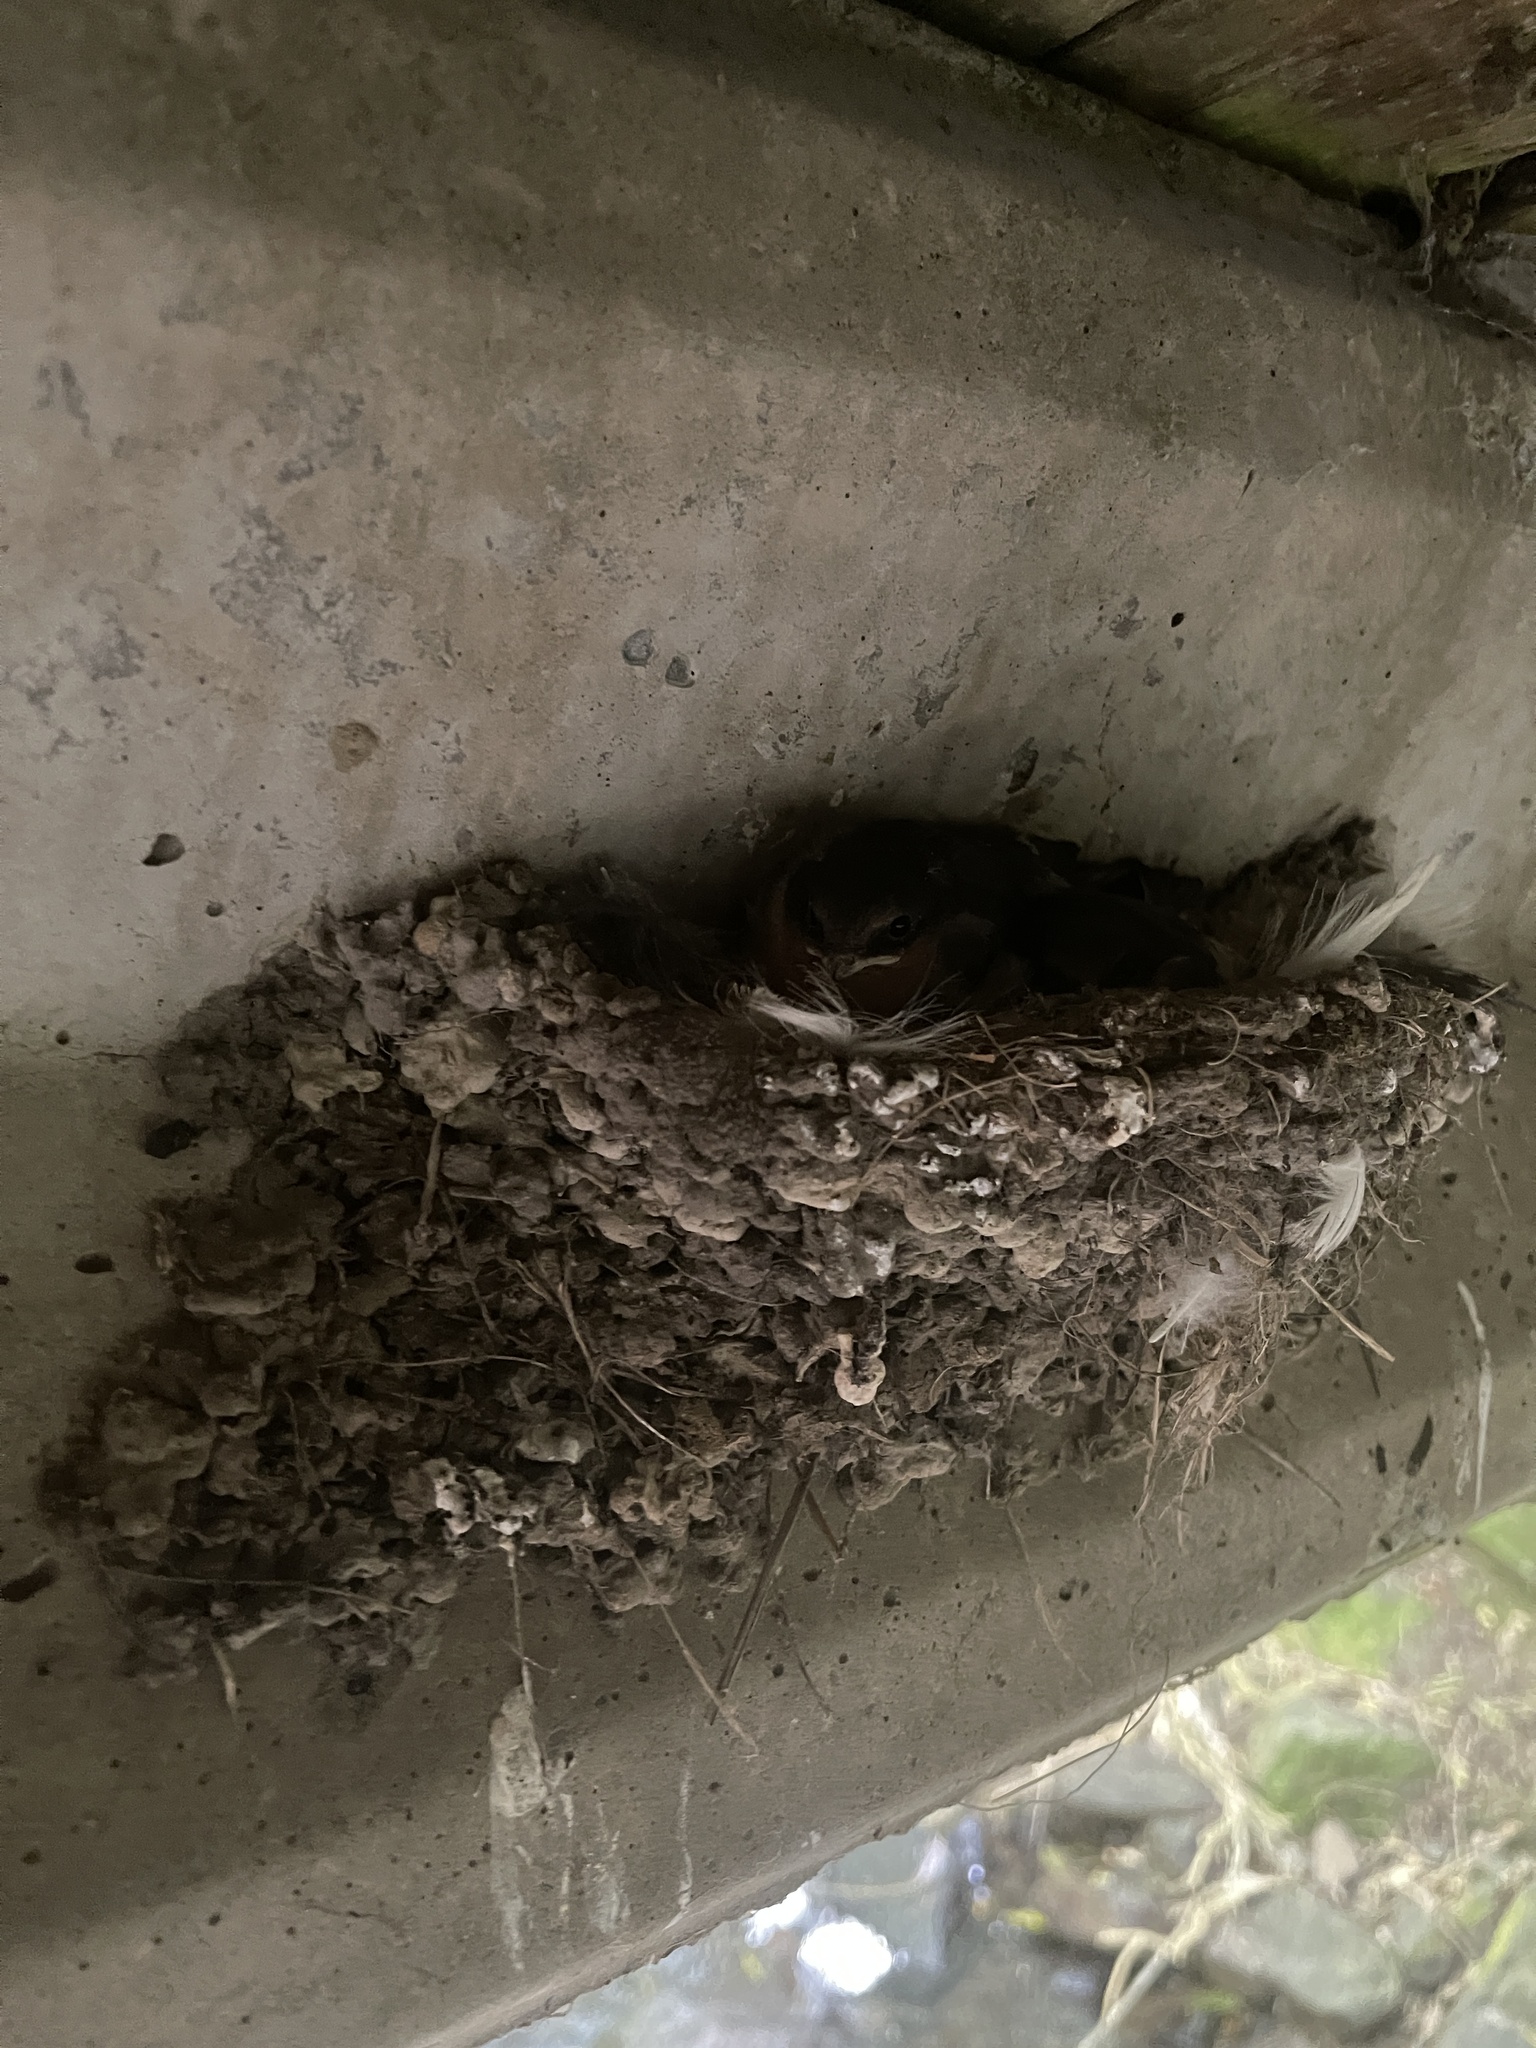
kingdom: Animalia
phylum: Chordata
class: Aves
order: Passeriformes
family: Hirundinidae
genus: Hirundo
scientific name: Hirundo neoxena
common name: Welcome swallow
